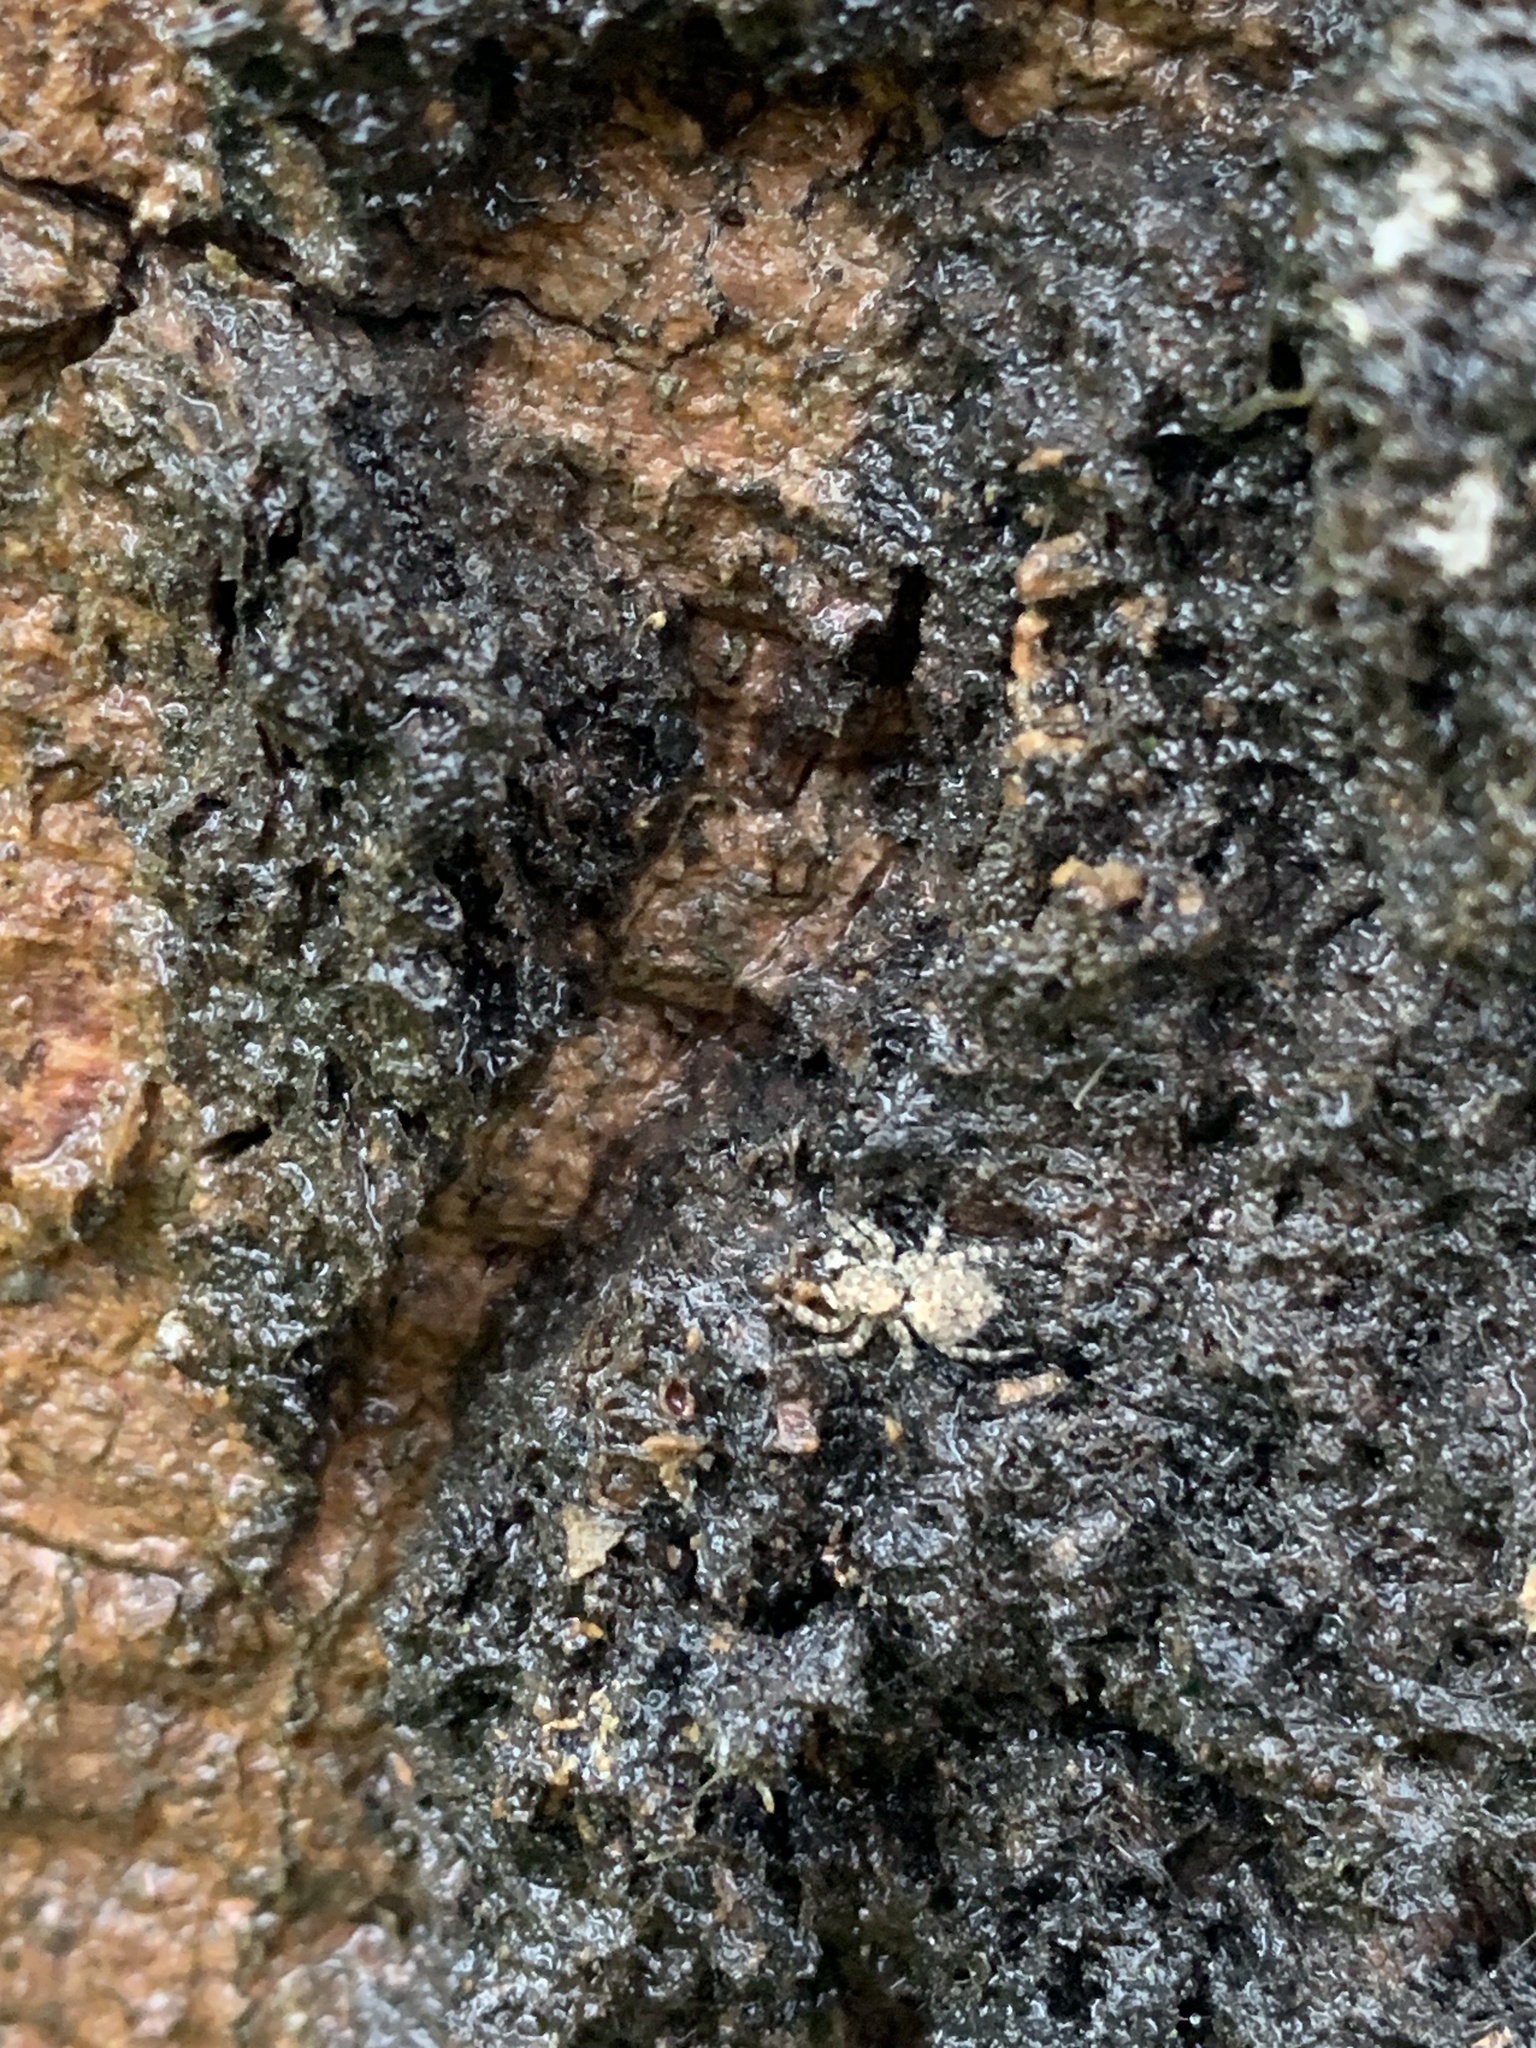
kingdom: Animalia
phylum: Arthropoda
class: Arachnida
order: Araneae
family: Salticidae
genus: Marma
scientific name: Marma nigritarsis
